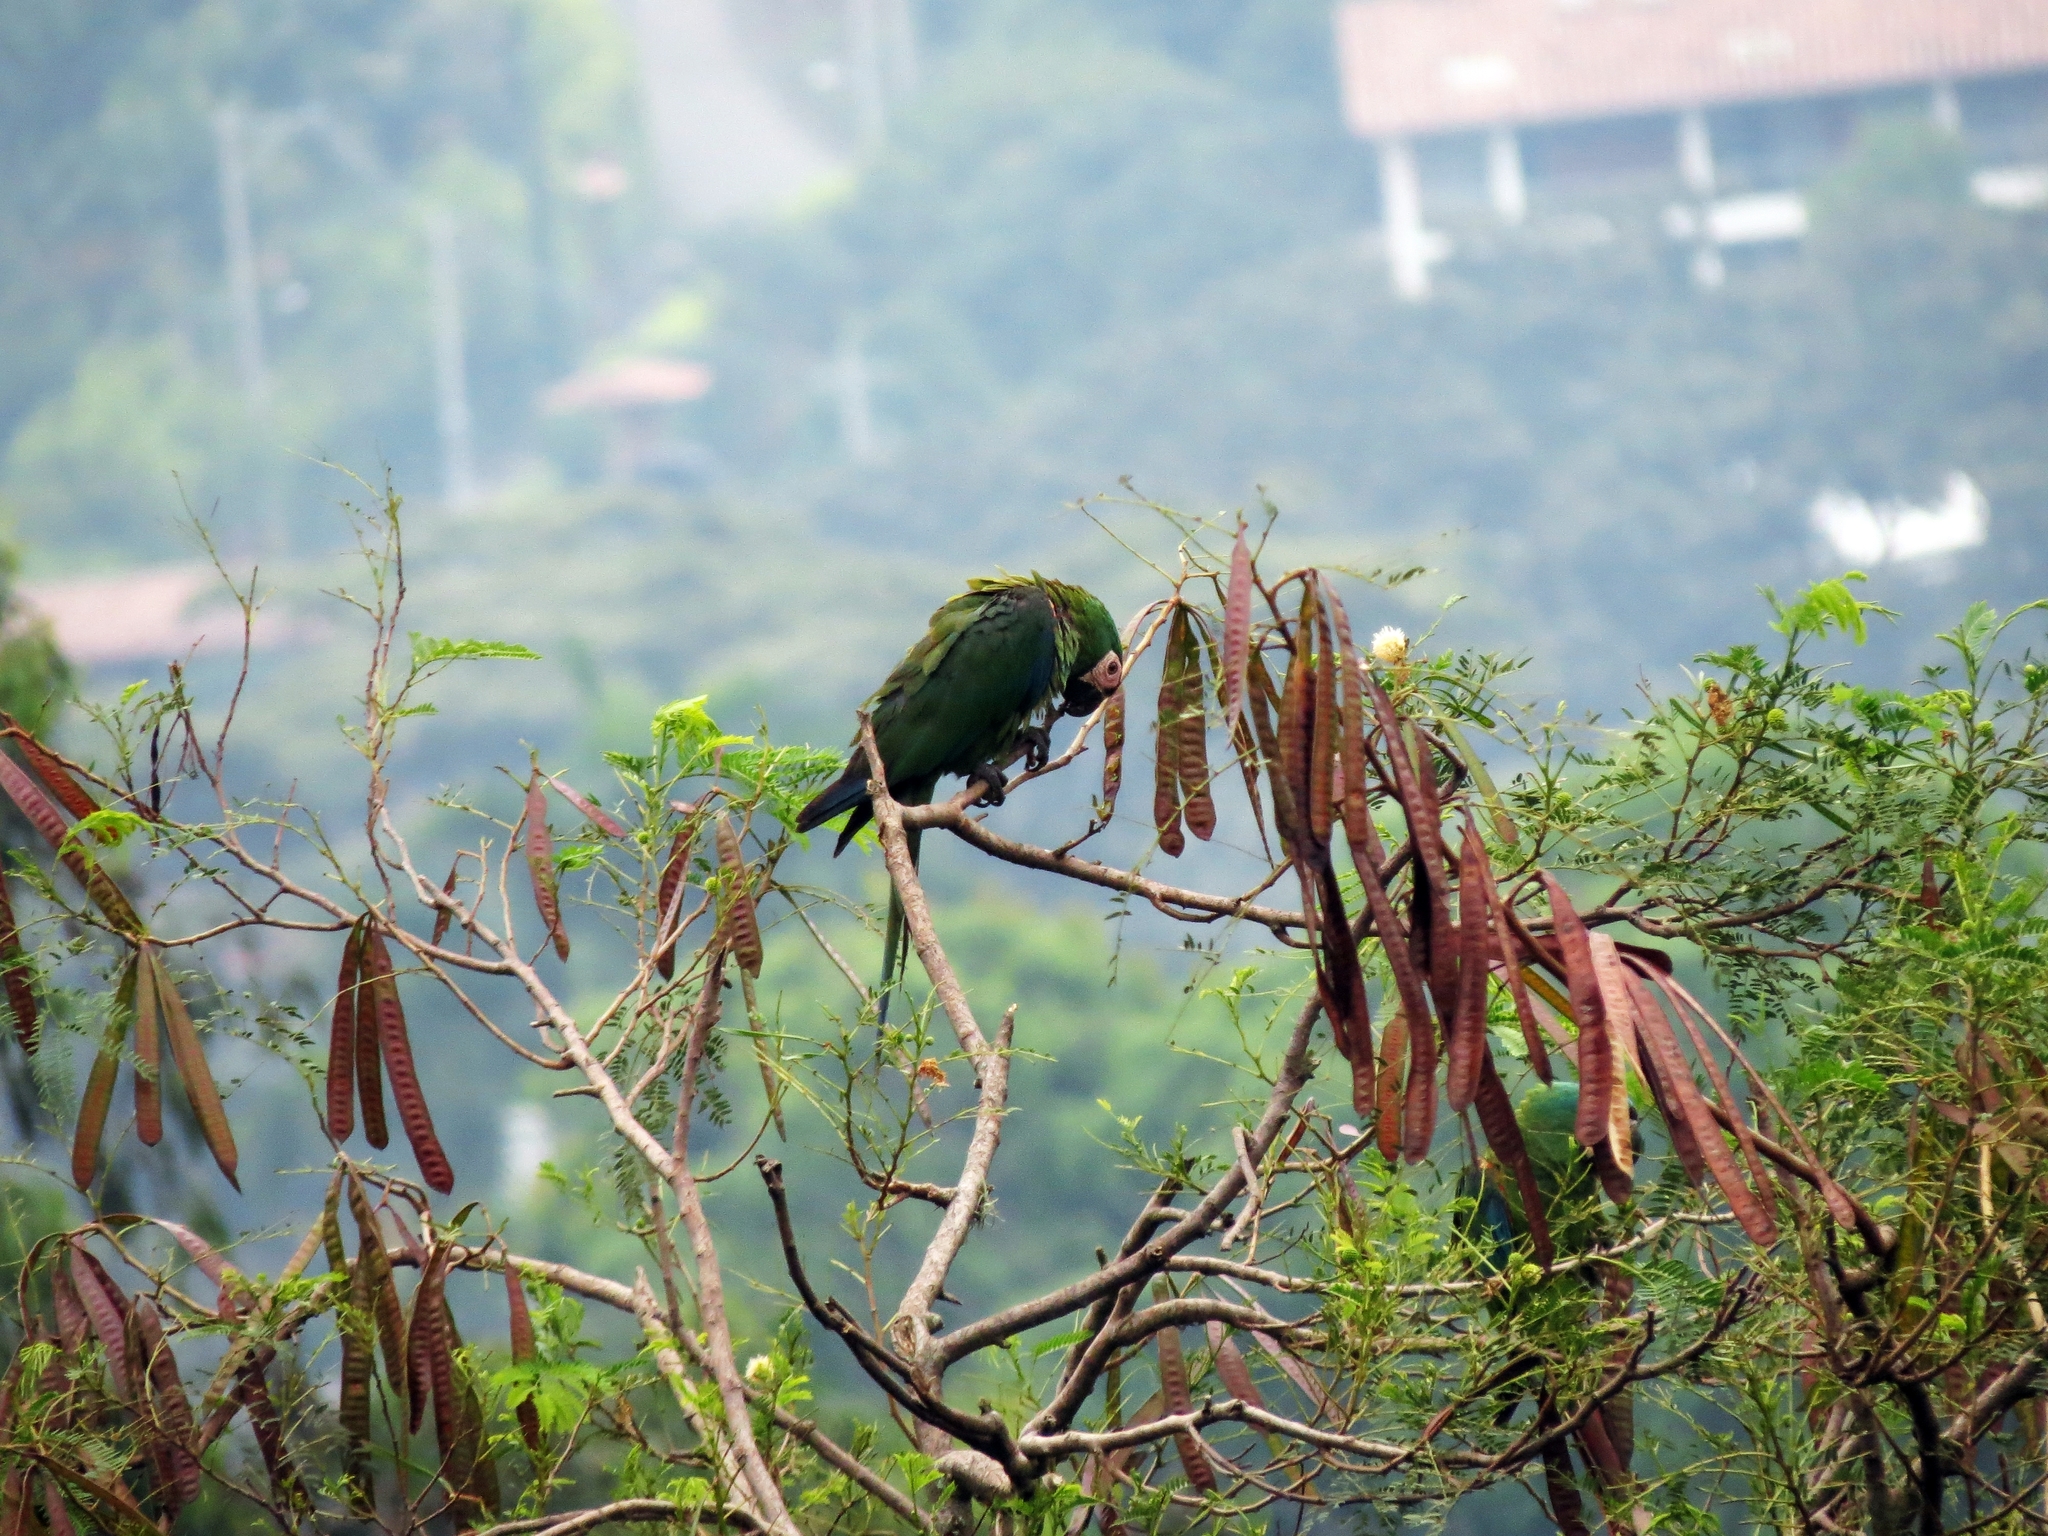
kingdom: Animalia
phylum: Chordata
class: Aves
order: Psittaciformes
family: Psittacidae
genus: Ara
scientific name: Ara severus
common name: Chestnut-fronted macaw
